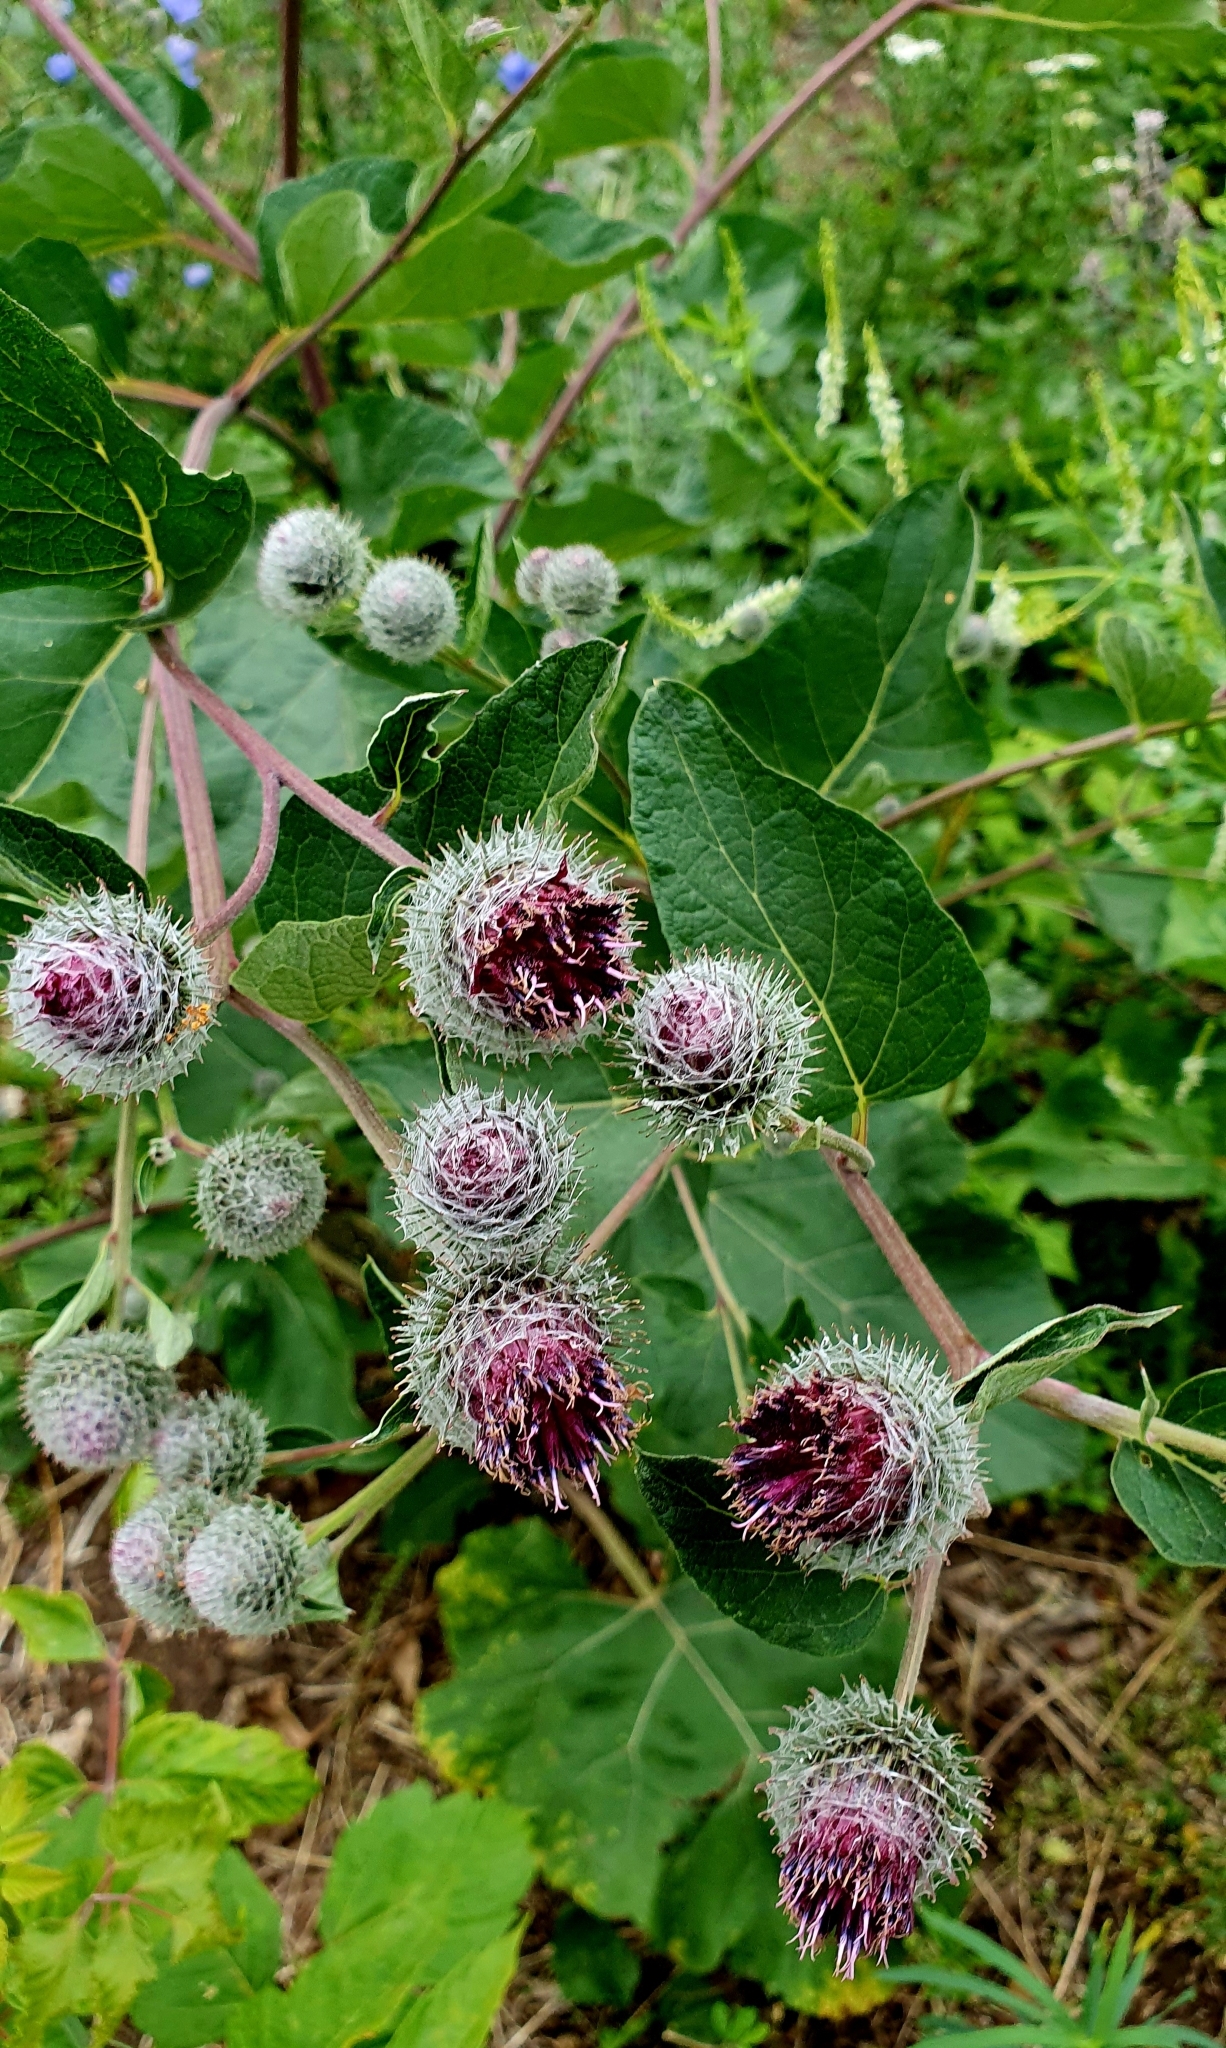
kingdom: Plantae
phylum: Tracheophyta
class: Magnoliopsida
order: Asterales
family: Asteraceae
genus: Arctium
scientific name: Arctium tomentosum
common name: Woolly burdock
